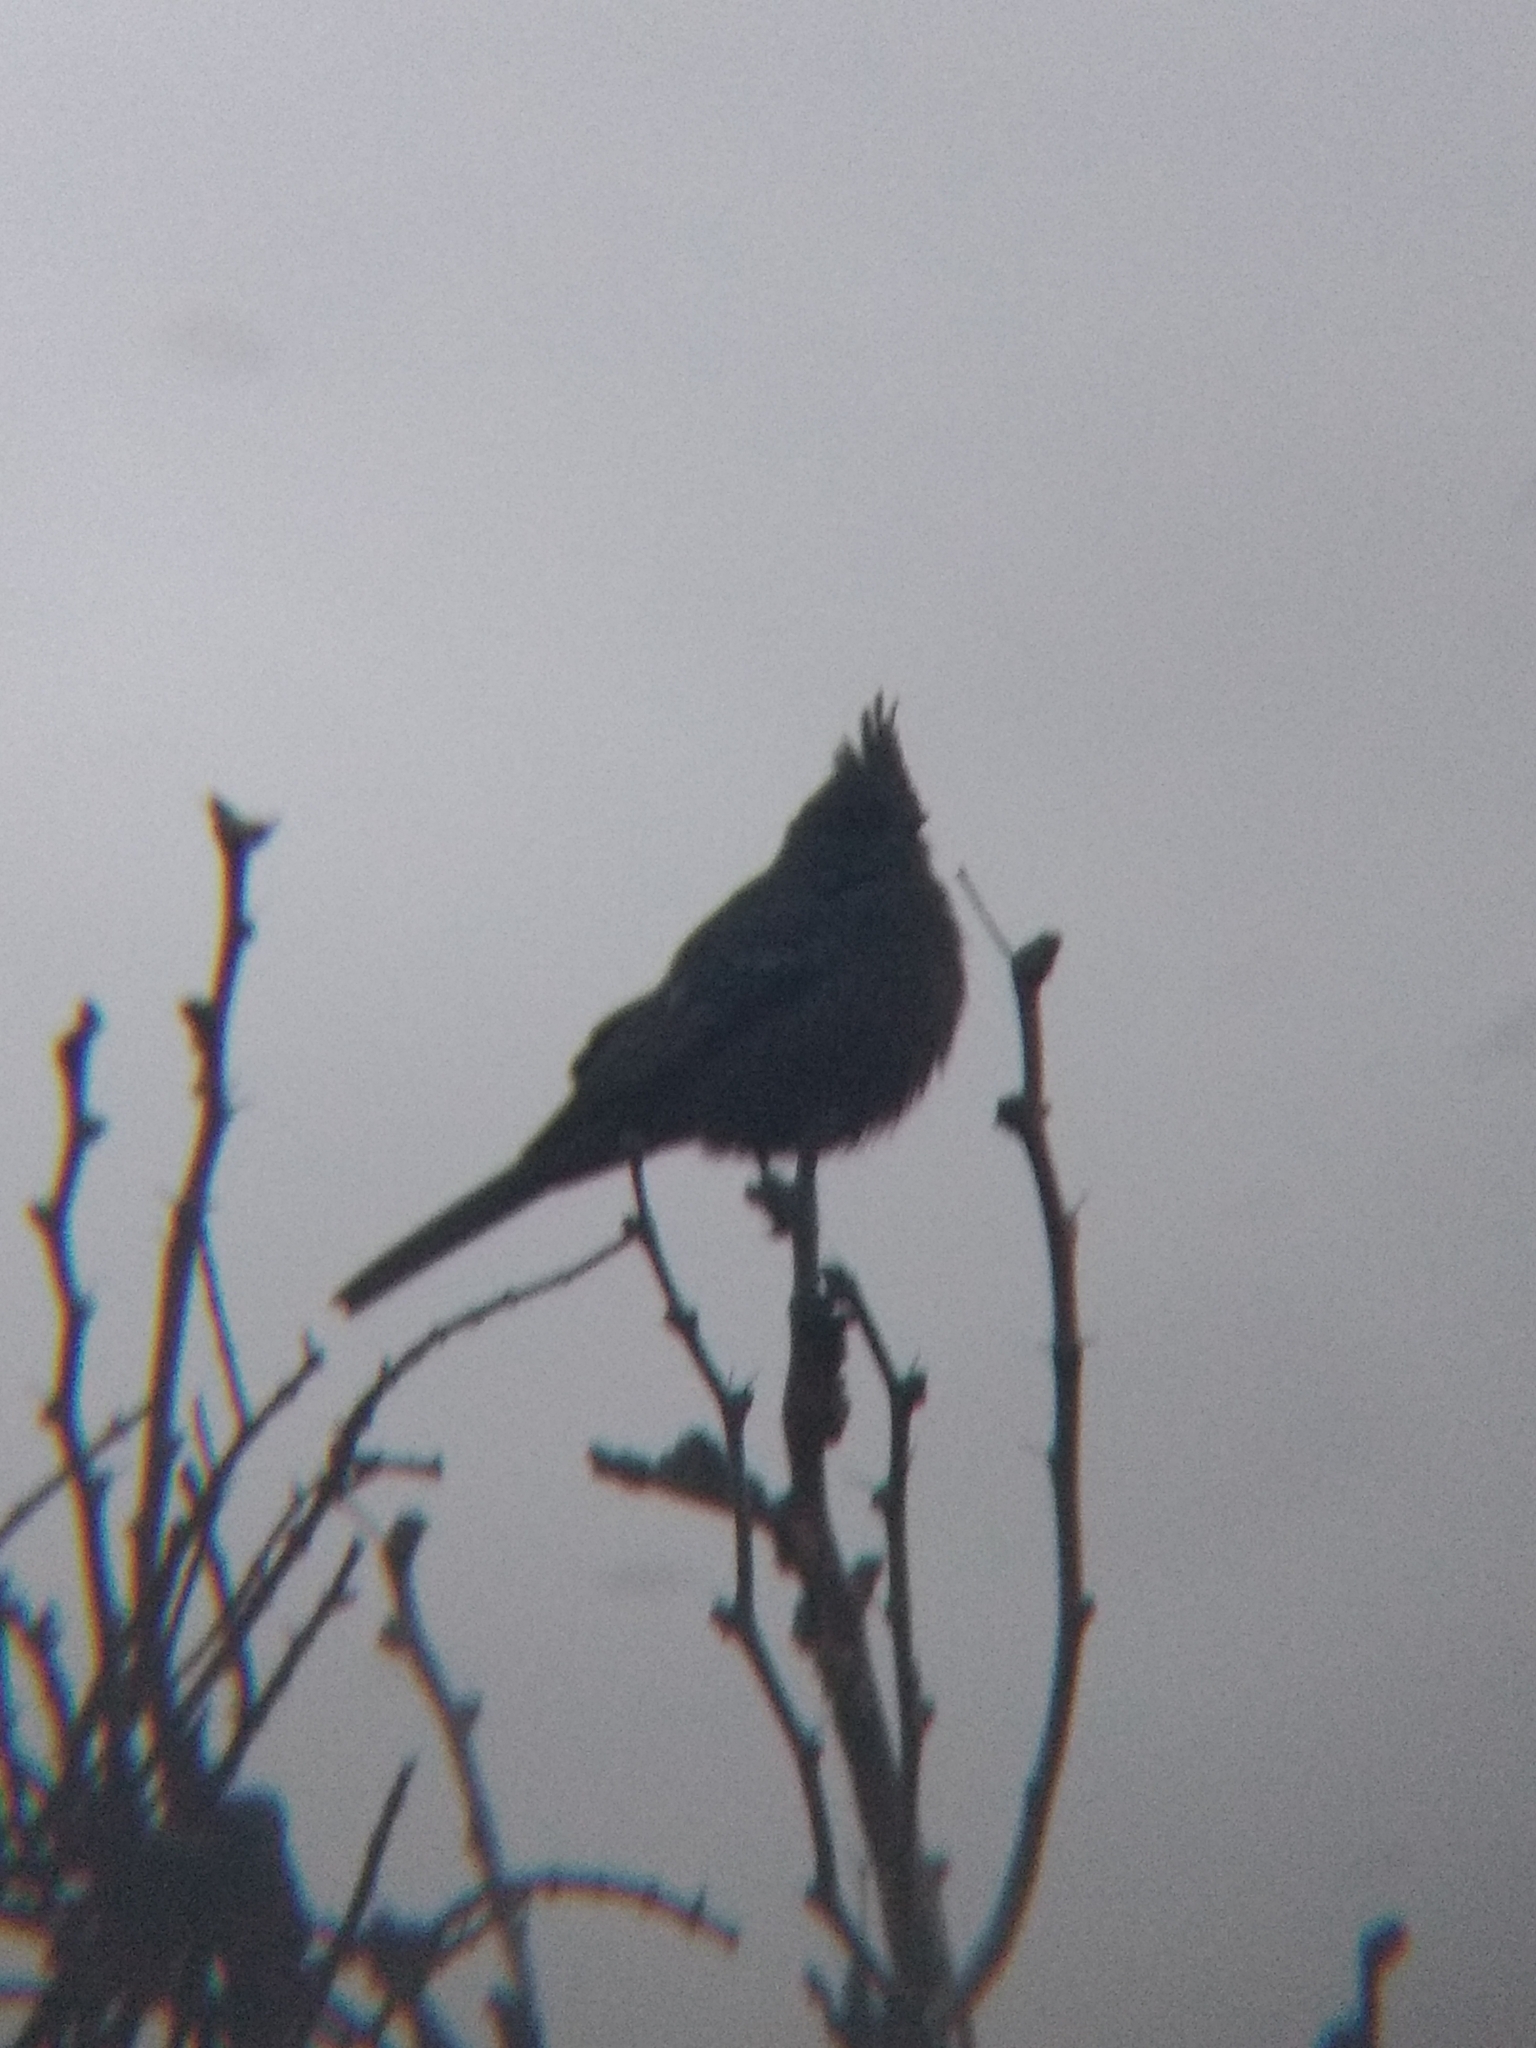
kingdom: Animalia
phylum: Chordata
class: Aves
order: Passeriformes
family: Ptilogonatidae
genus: Phainopepla
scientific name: Phainopepla nitens
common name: Phainopepla
